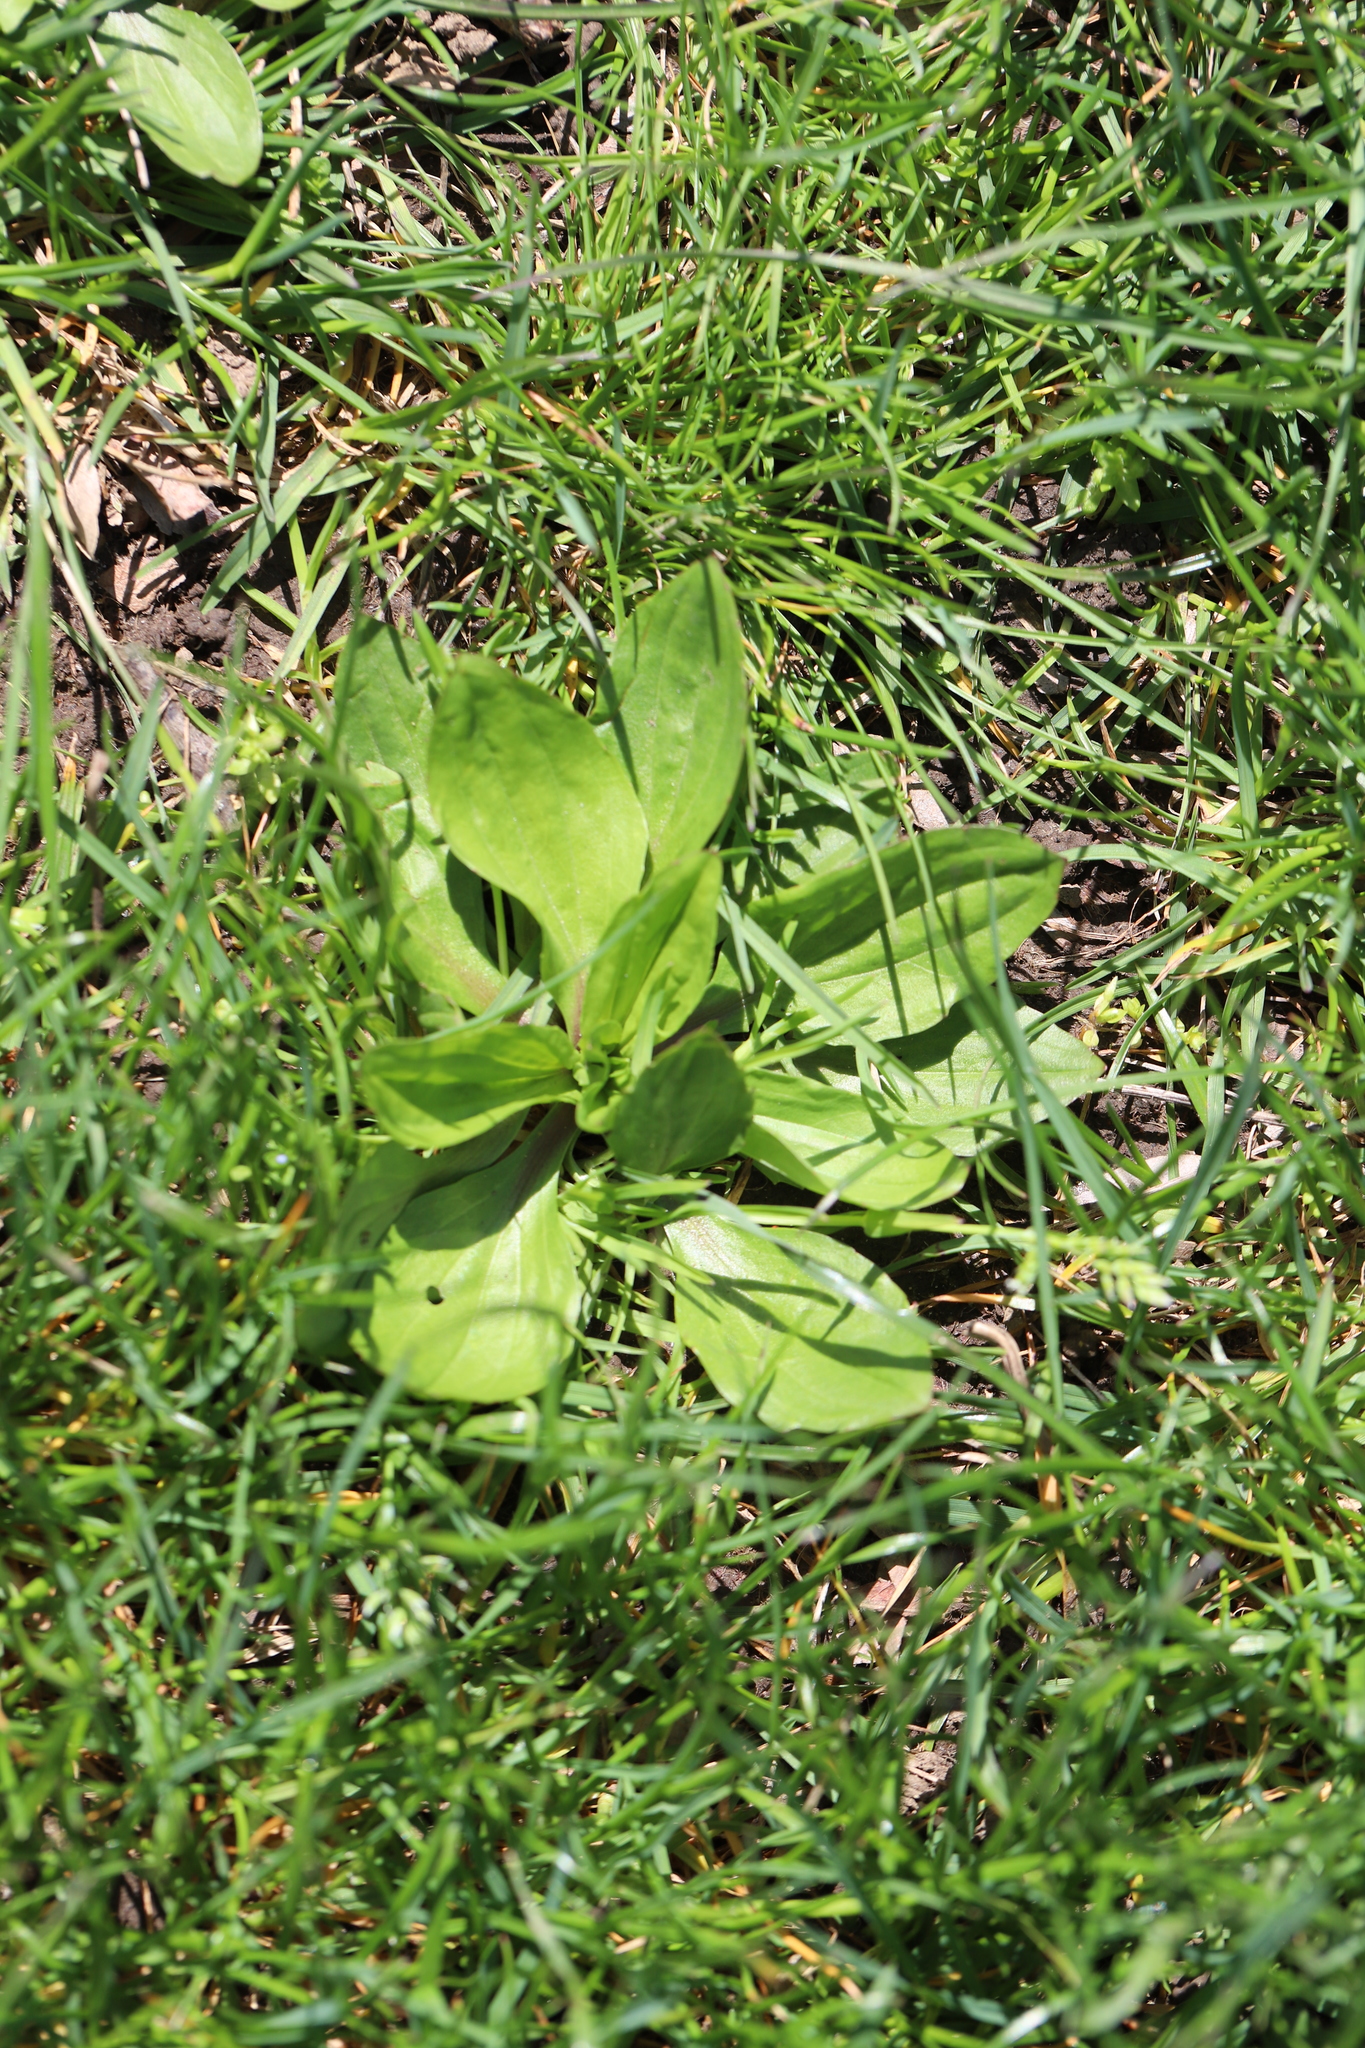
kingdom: Plantae
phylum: Tracheophyta
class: Magnoliopsida
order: Lamiales
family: Plantaginaceae
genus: Plantago
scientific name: Plantago rugelii
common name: American plantain
